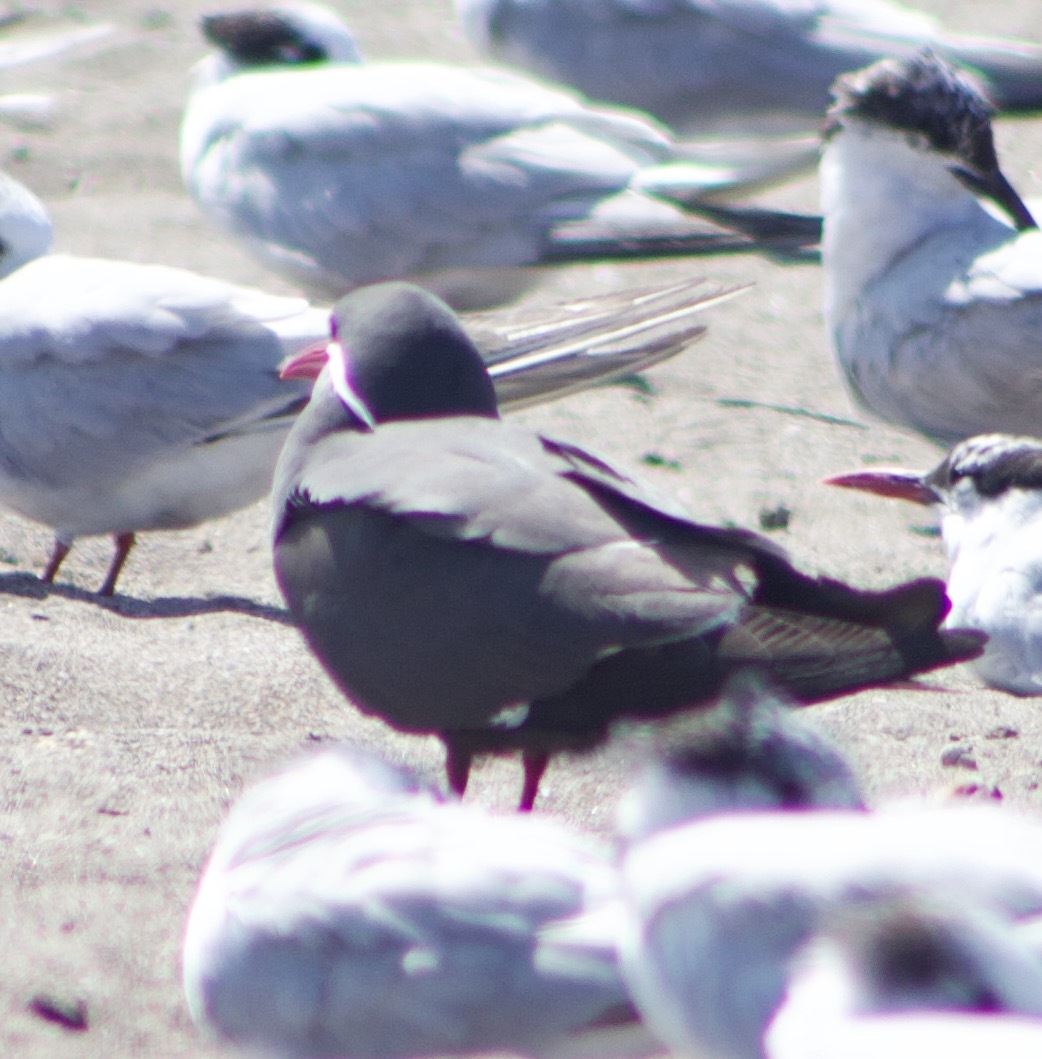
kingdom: Animalia
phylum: Chordata
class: Aves
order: Charadriiformes
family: Laridae
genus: Larosterna
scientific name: Larosterna inca
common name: Inca tern
